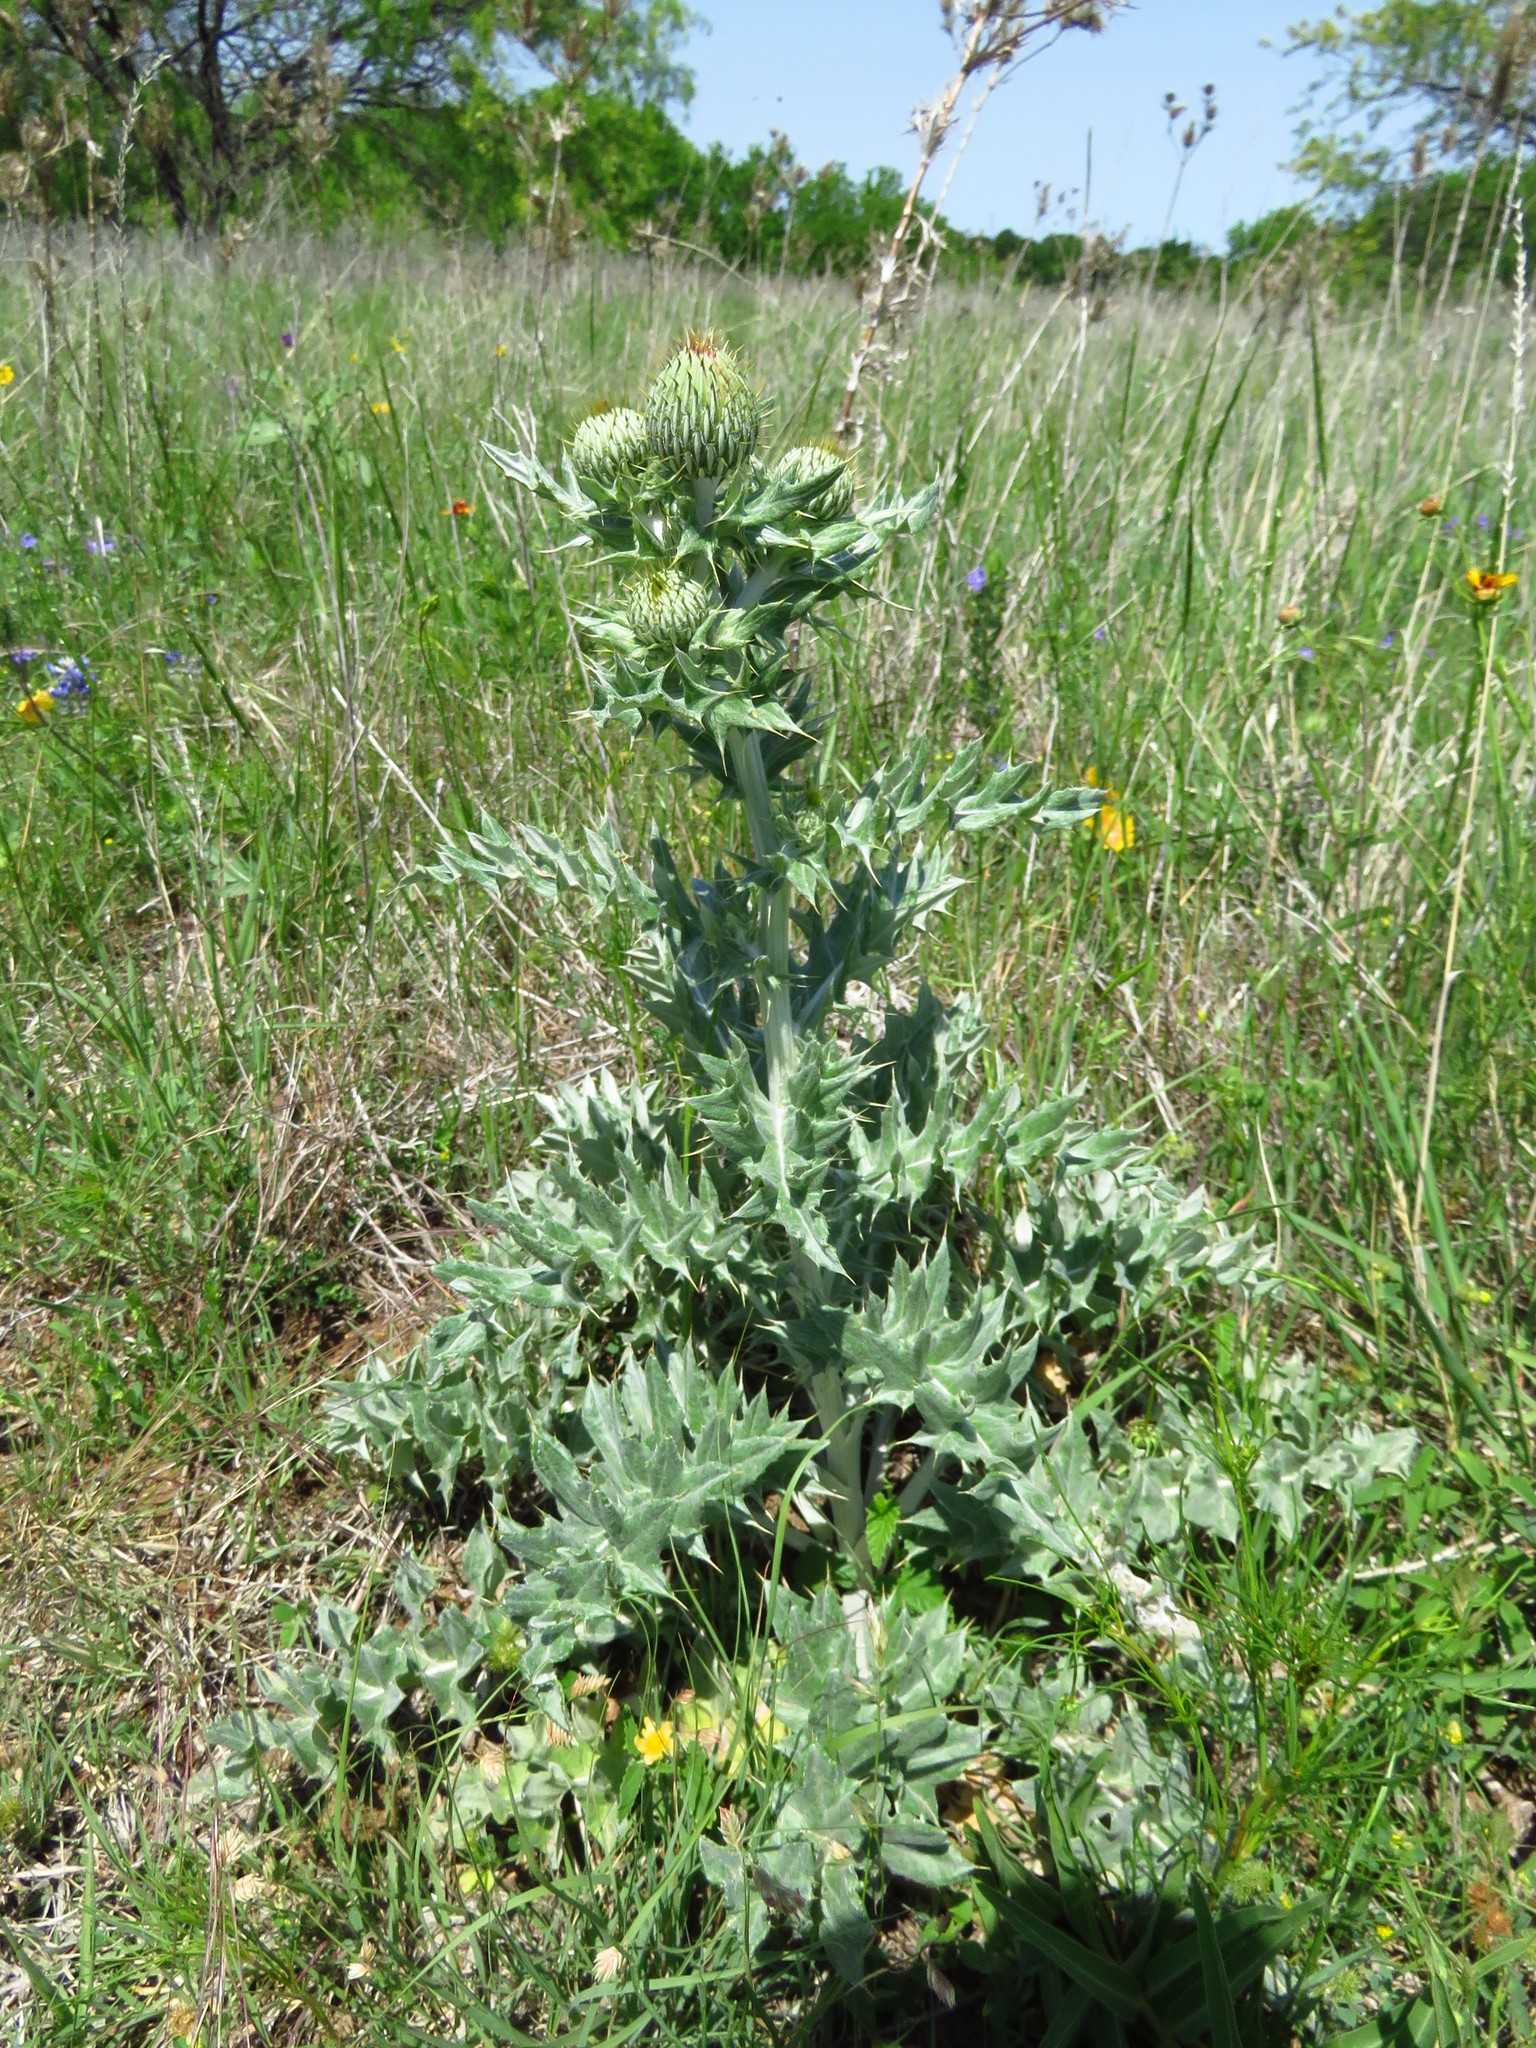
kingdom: Plantae
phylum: Tracheophyta
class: Magnoliopsida
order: Asterales
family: Asteraceae
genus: Cirsium
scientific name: Cirsium undulatum
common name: Pasture thistle
